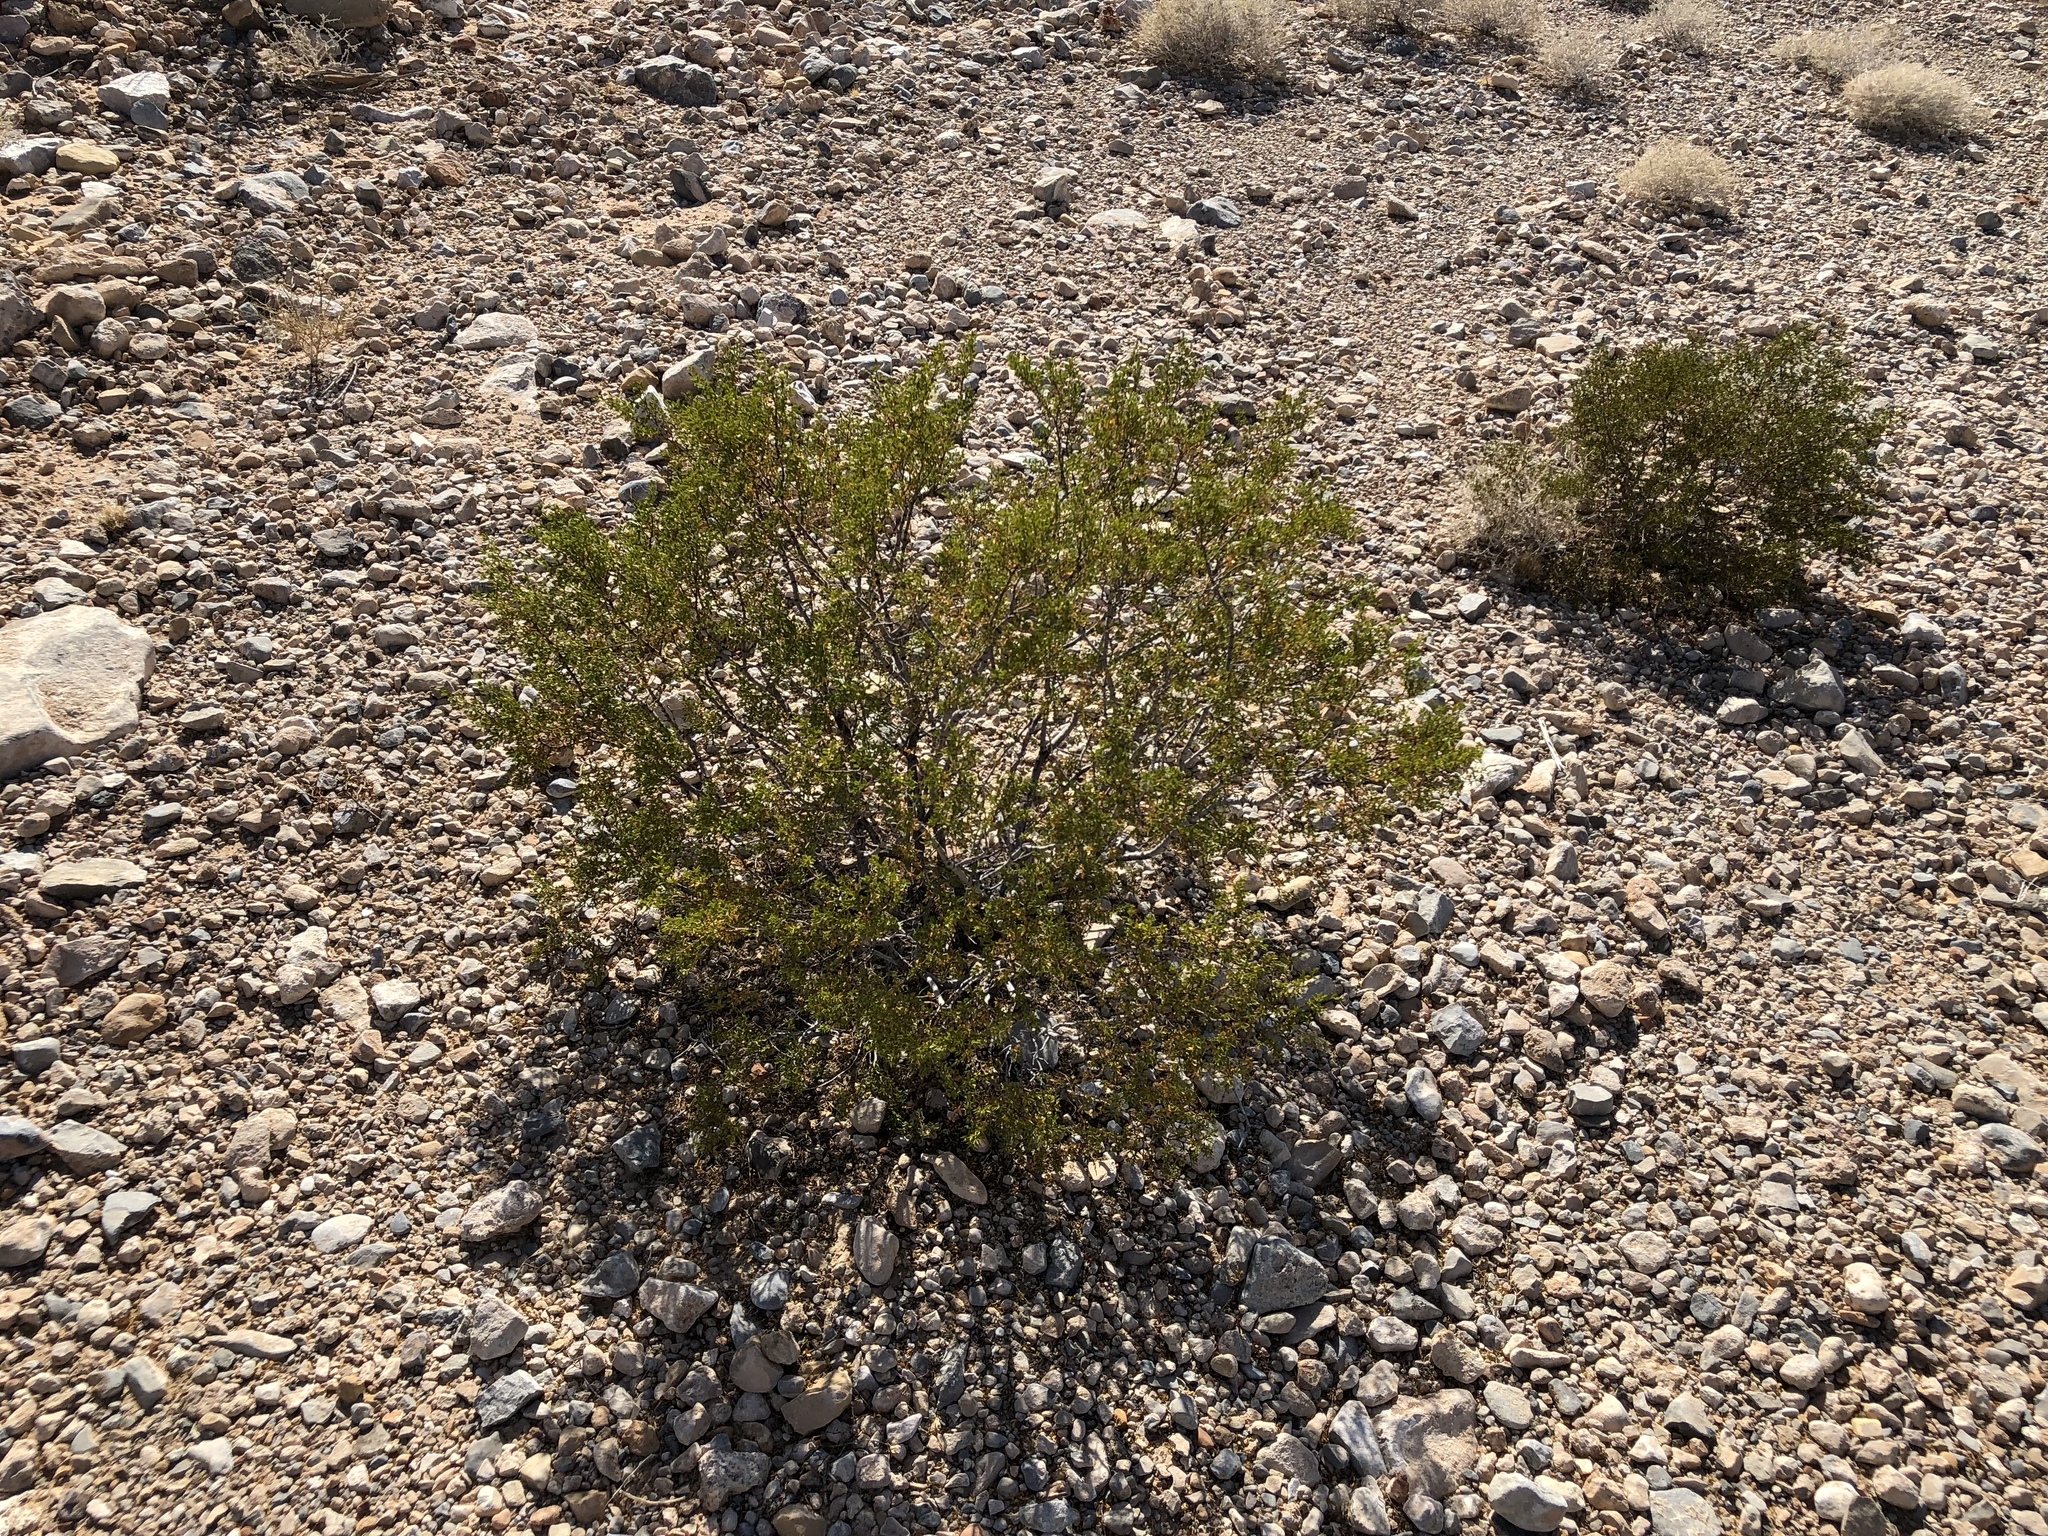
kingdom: Plantae
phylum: Tracheophyta
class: Magnoliopsida
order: Zygophyllales
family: Zygophyllaceae
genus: Larrea
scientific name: Larrea tridentata
